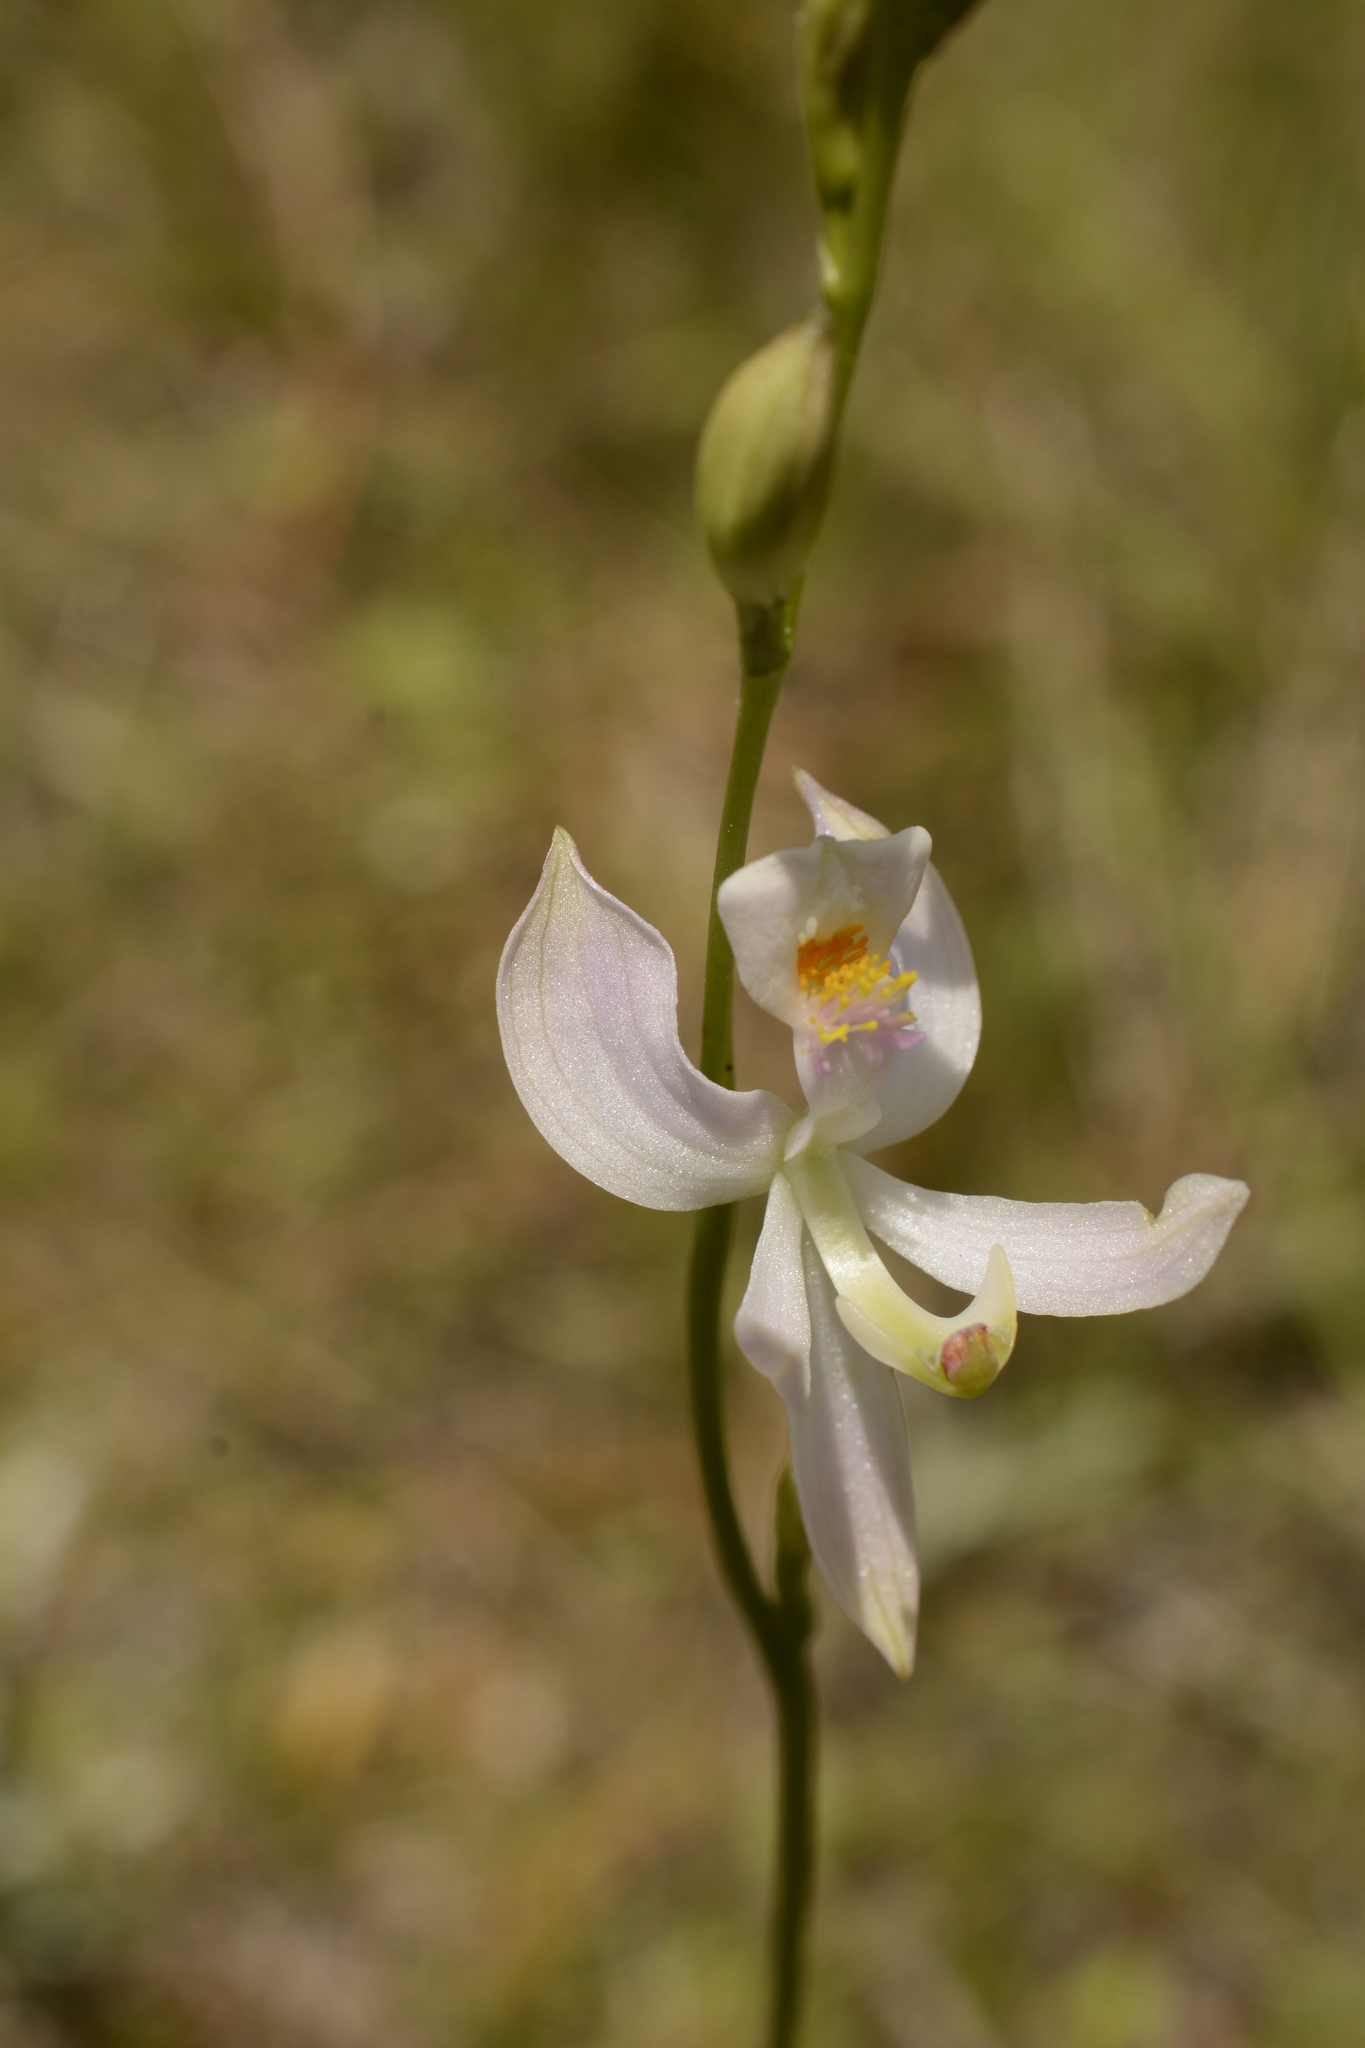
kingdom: Plantae
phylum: Tracheophyta
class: Liliopsida
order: Asparagales
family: Orchidaceae
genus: Calopogon
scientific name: Calopogon pallidus
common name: Pale grasspink
